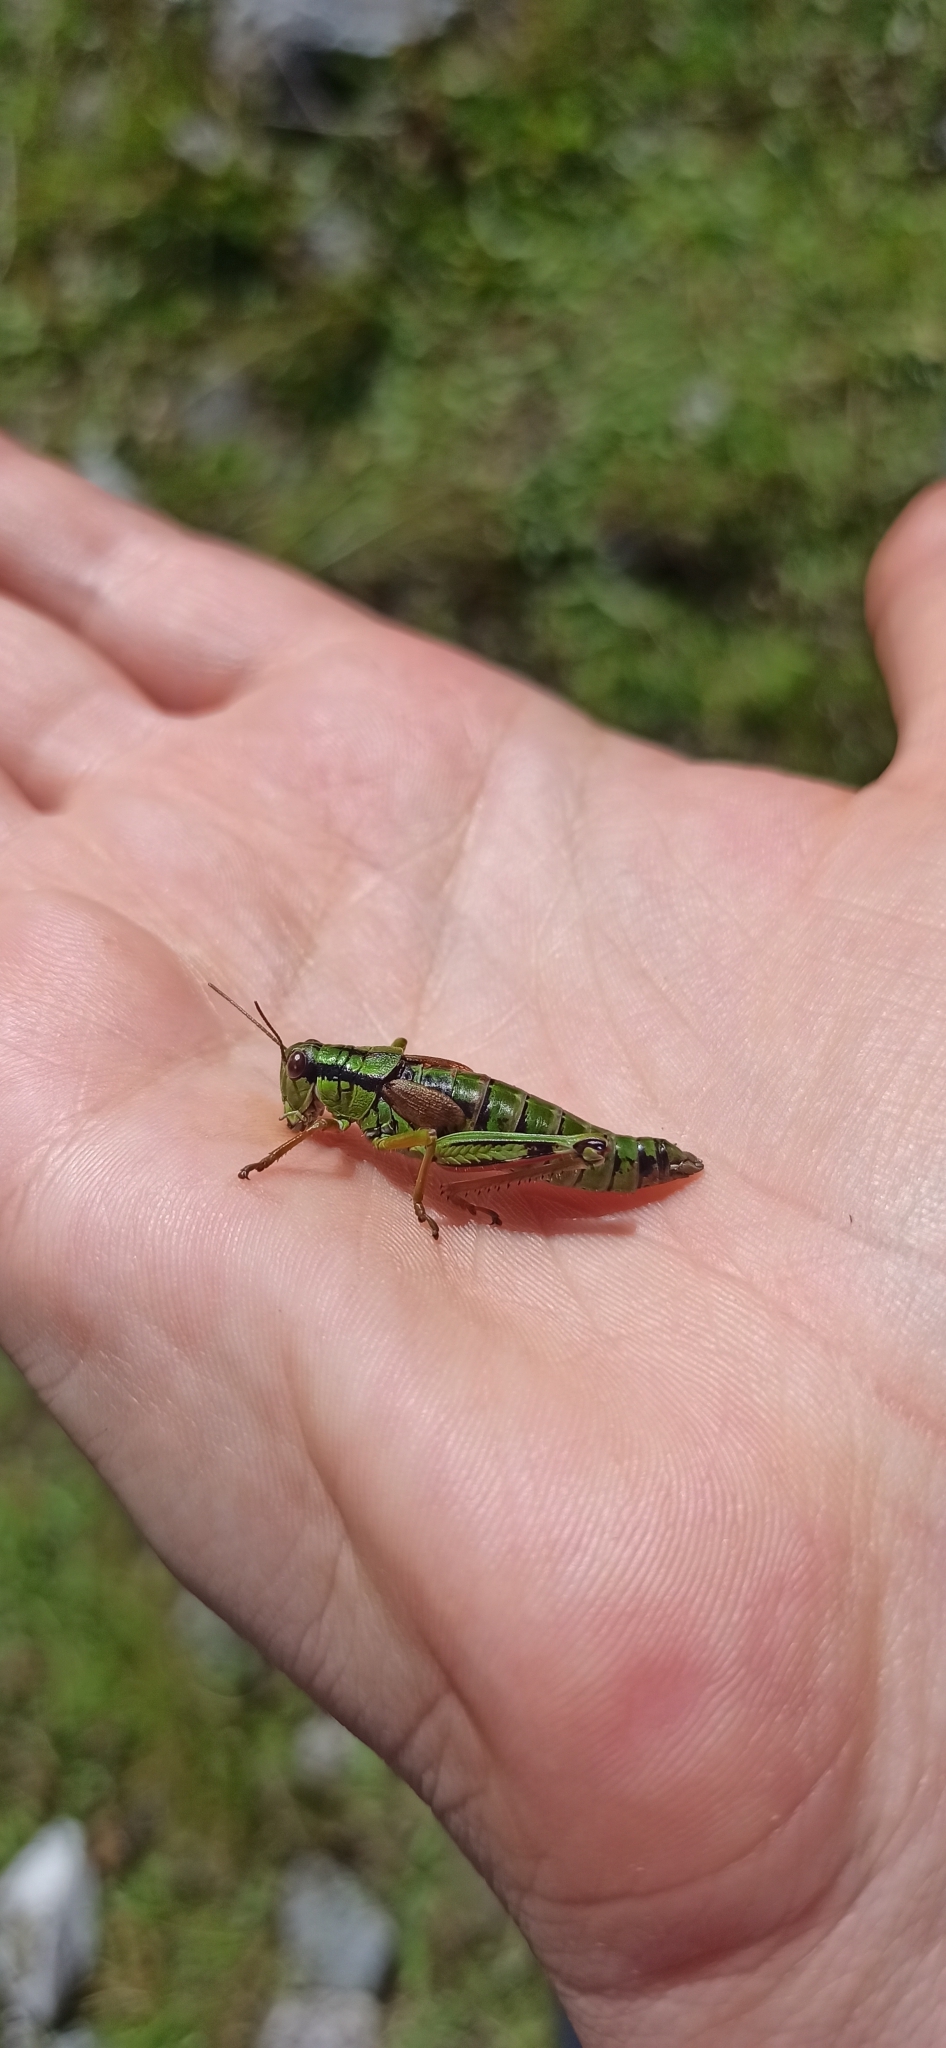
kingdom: Animalia
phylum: Arthropoda
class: Insecta
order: Orthoptera
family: Acrididae
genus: Miramella
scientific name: Miramella alpina
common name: Green mountain grasshopper
